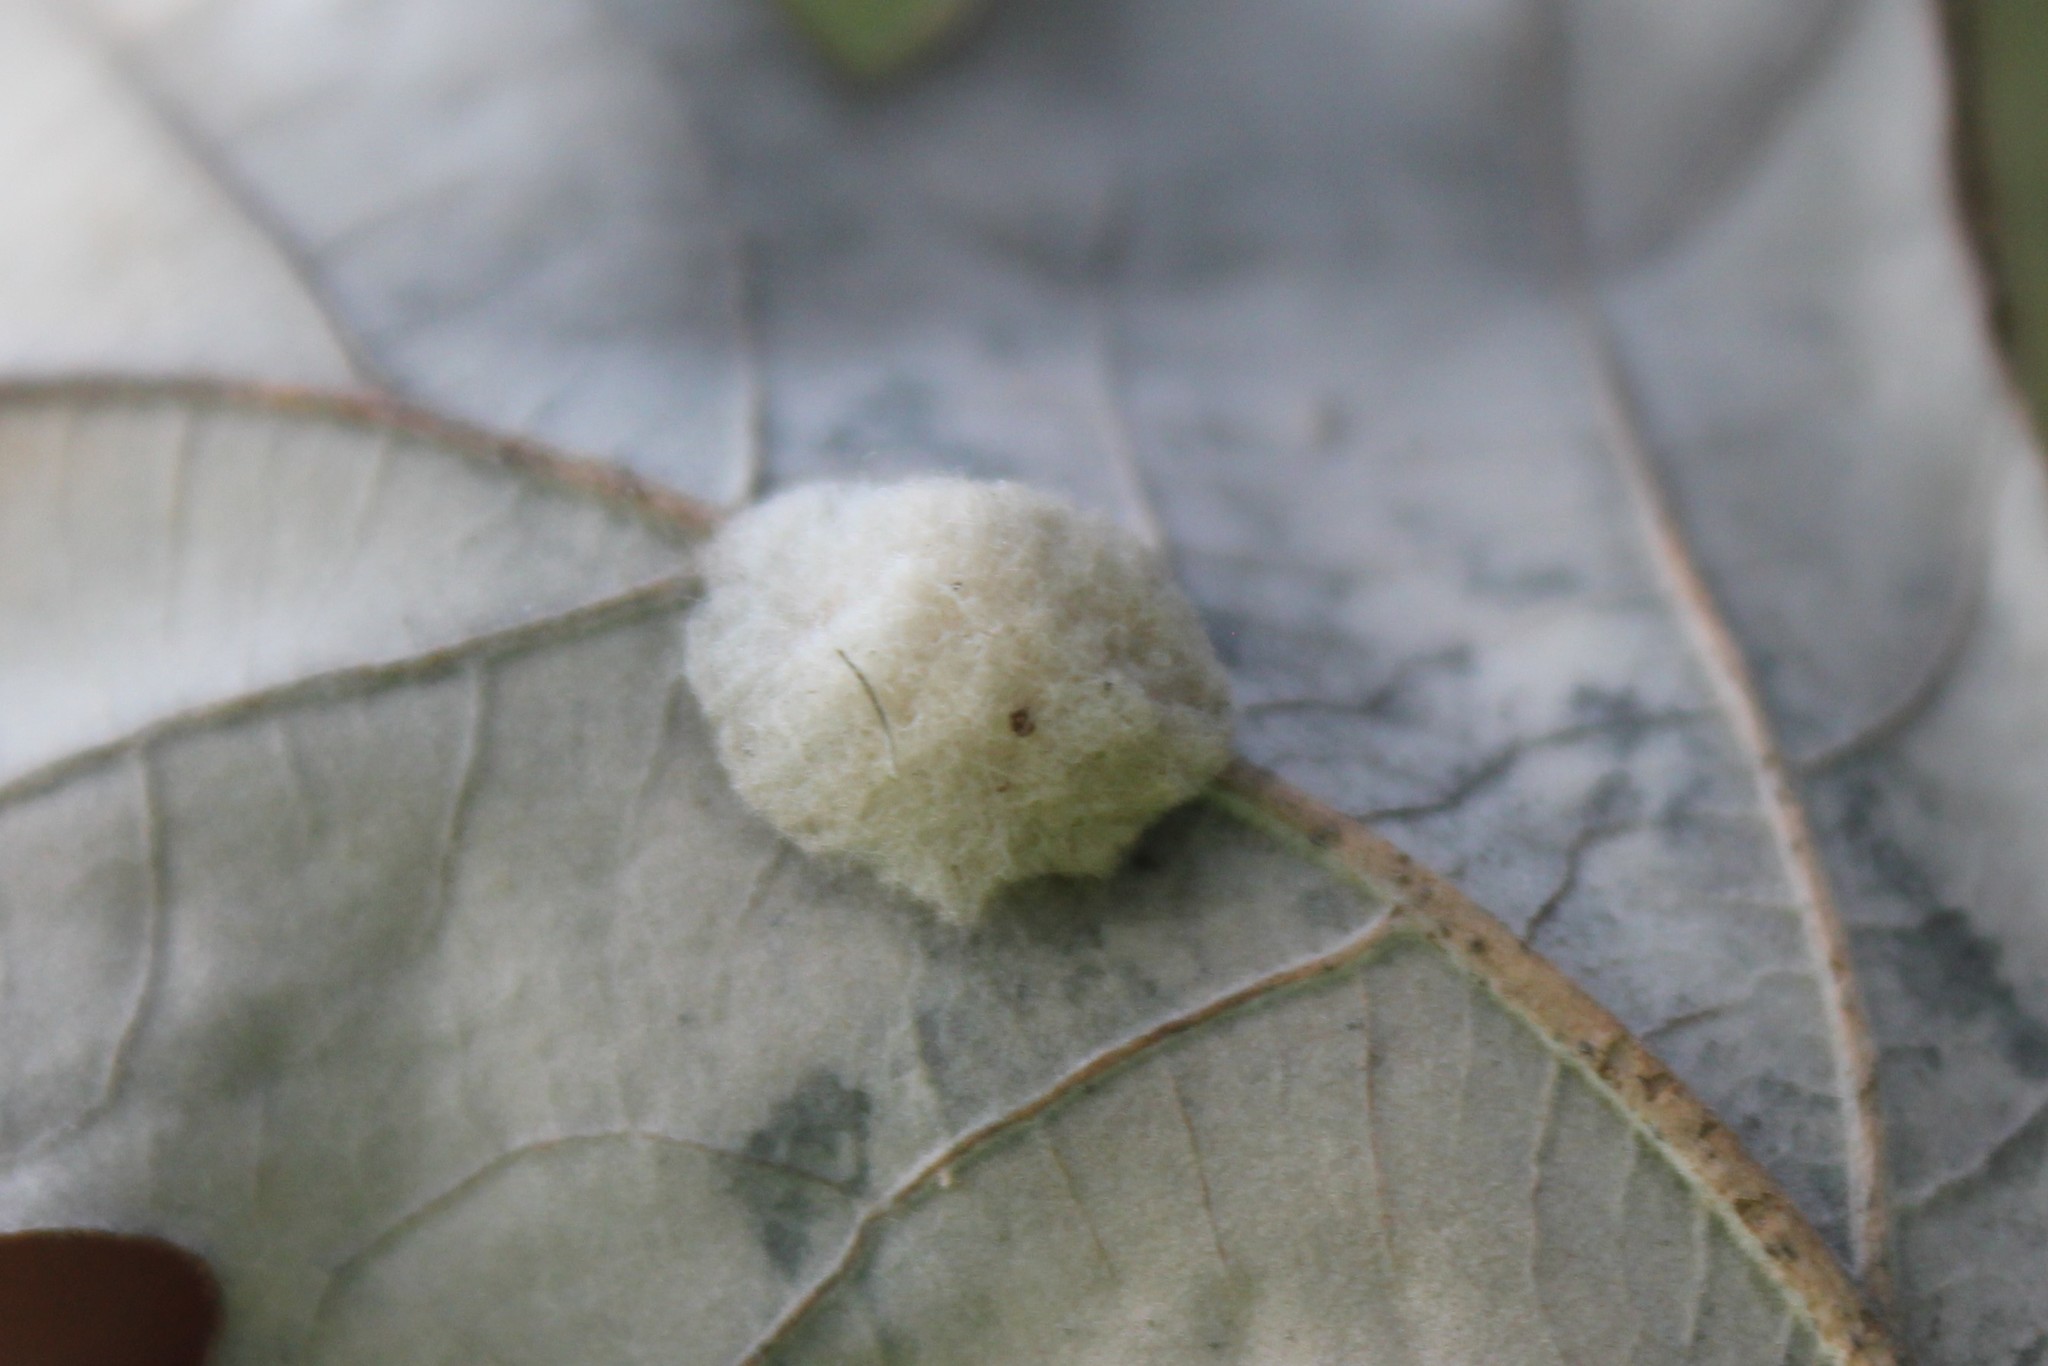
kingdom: Animalia
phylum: Arthropoda
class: Insecta
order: Hymenoptera
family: Cynipidae
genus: Andricus
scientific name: Andricus Druon ignotum
